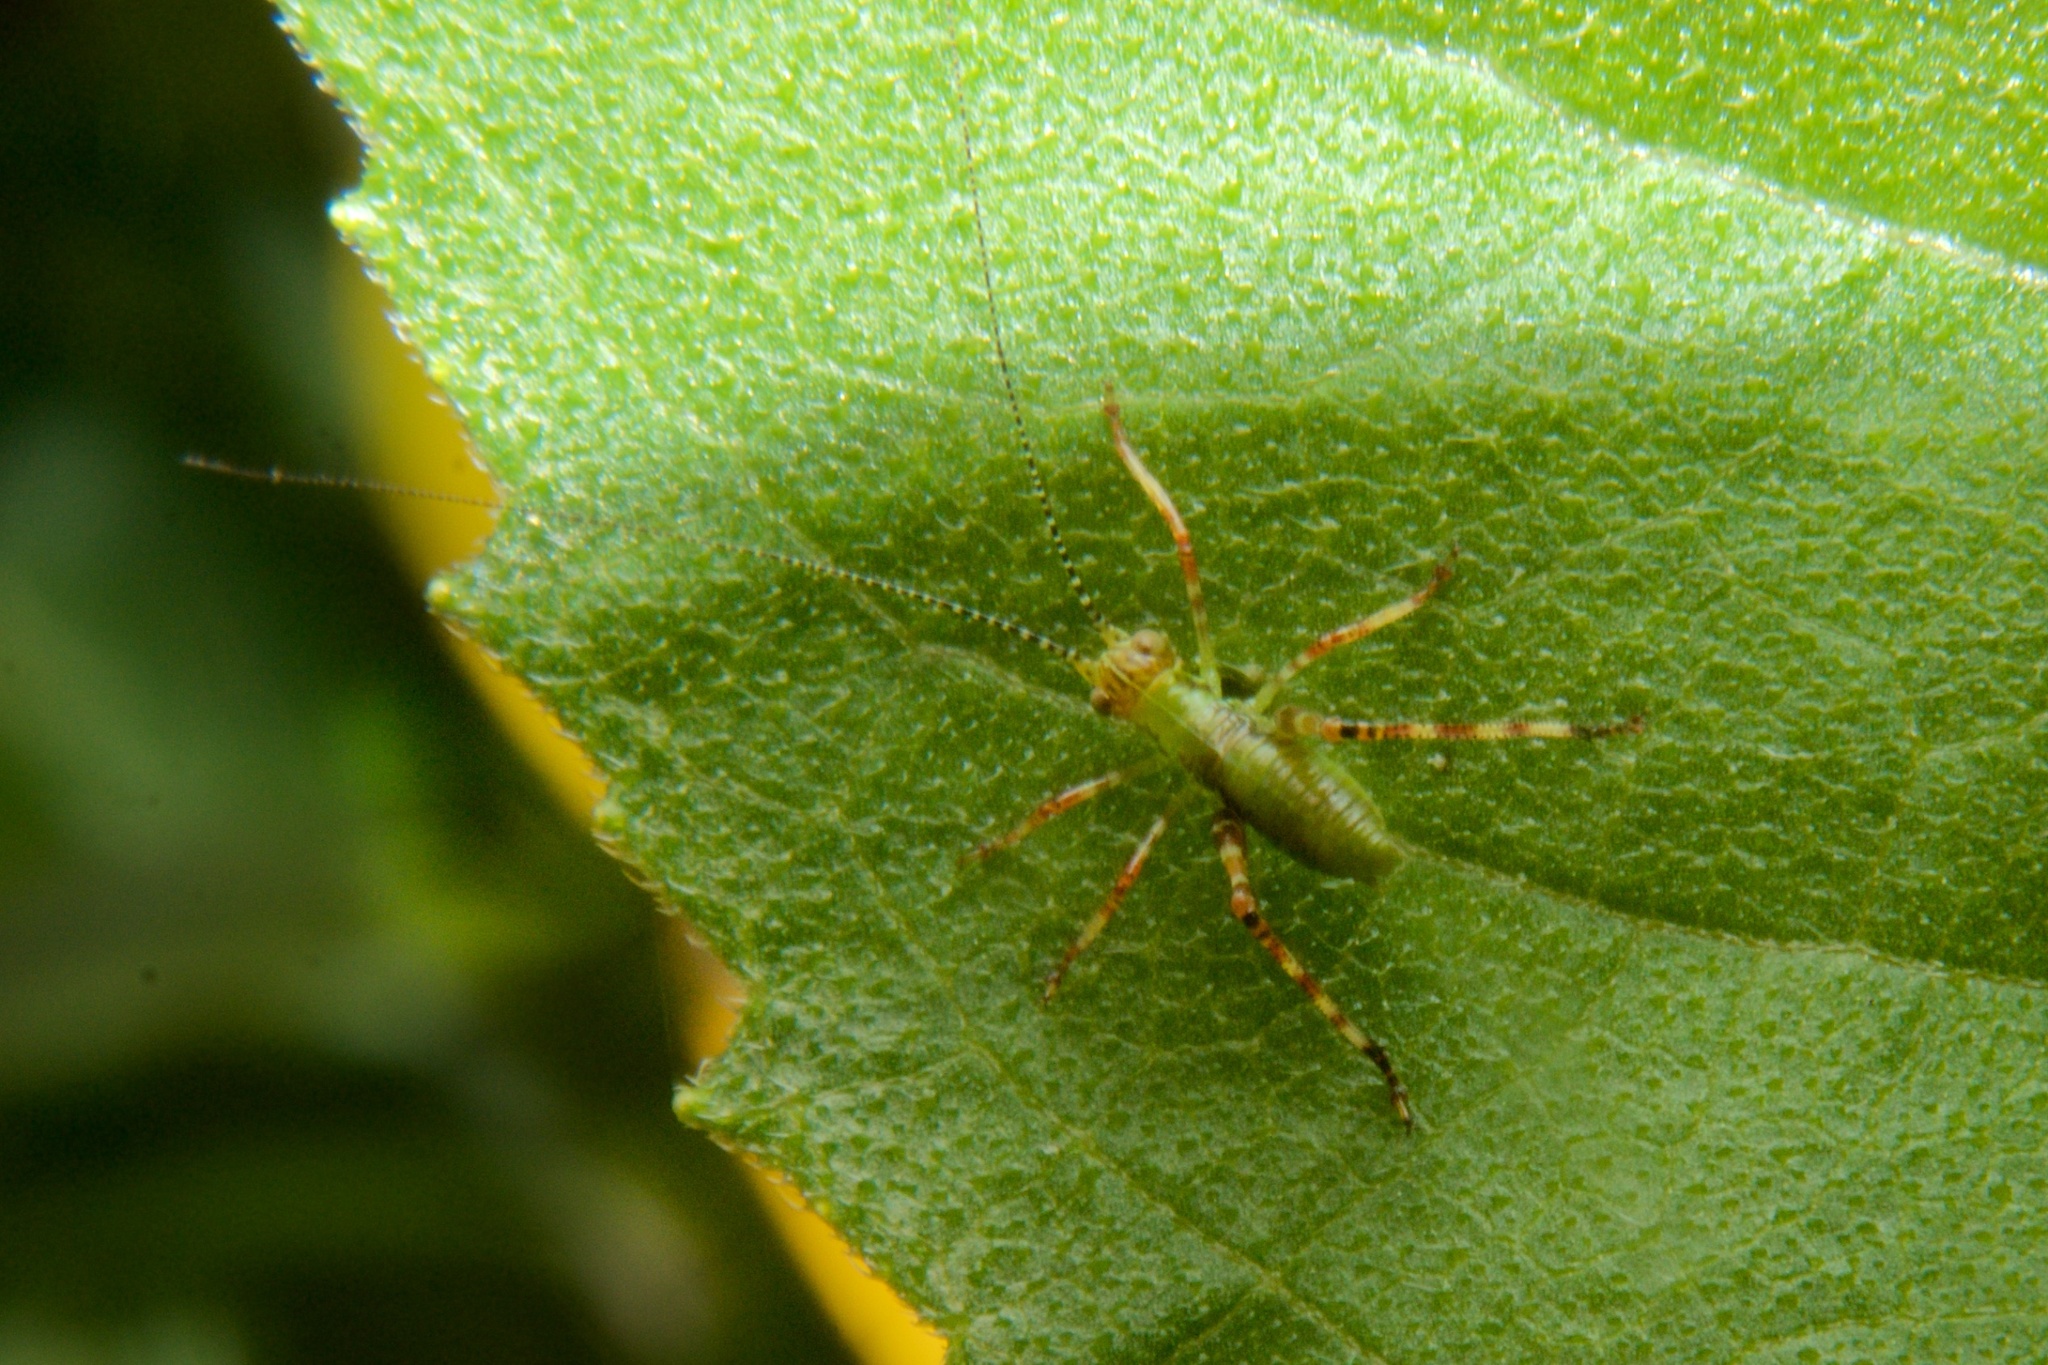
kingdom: Animalia
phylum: Arthropoda
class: Insecta
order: Orthoptera
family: Tettigoniidae
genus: Caedicia
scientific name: Caedicia simplex
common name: Common garden katydid
